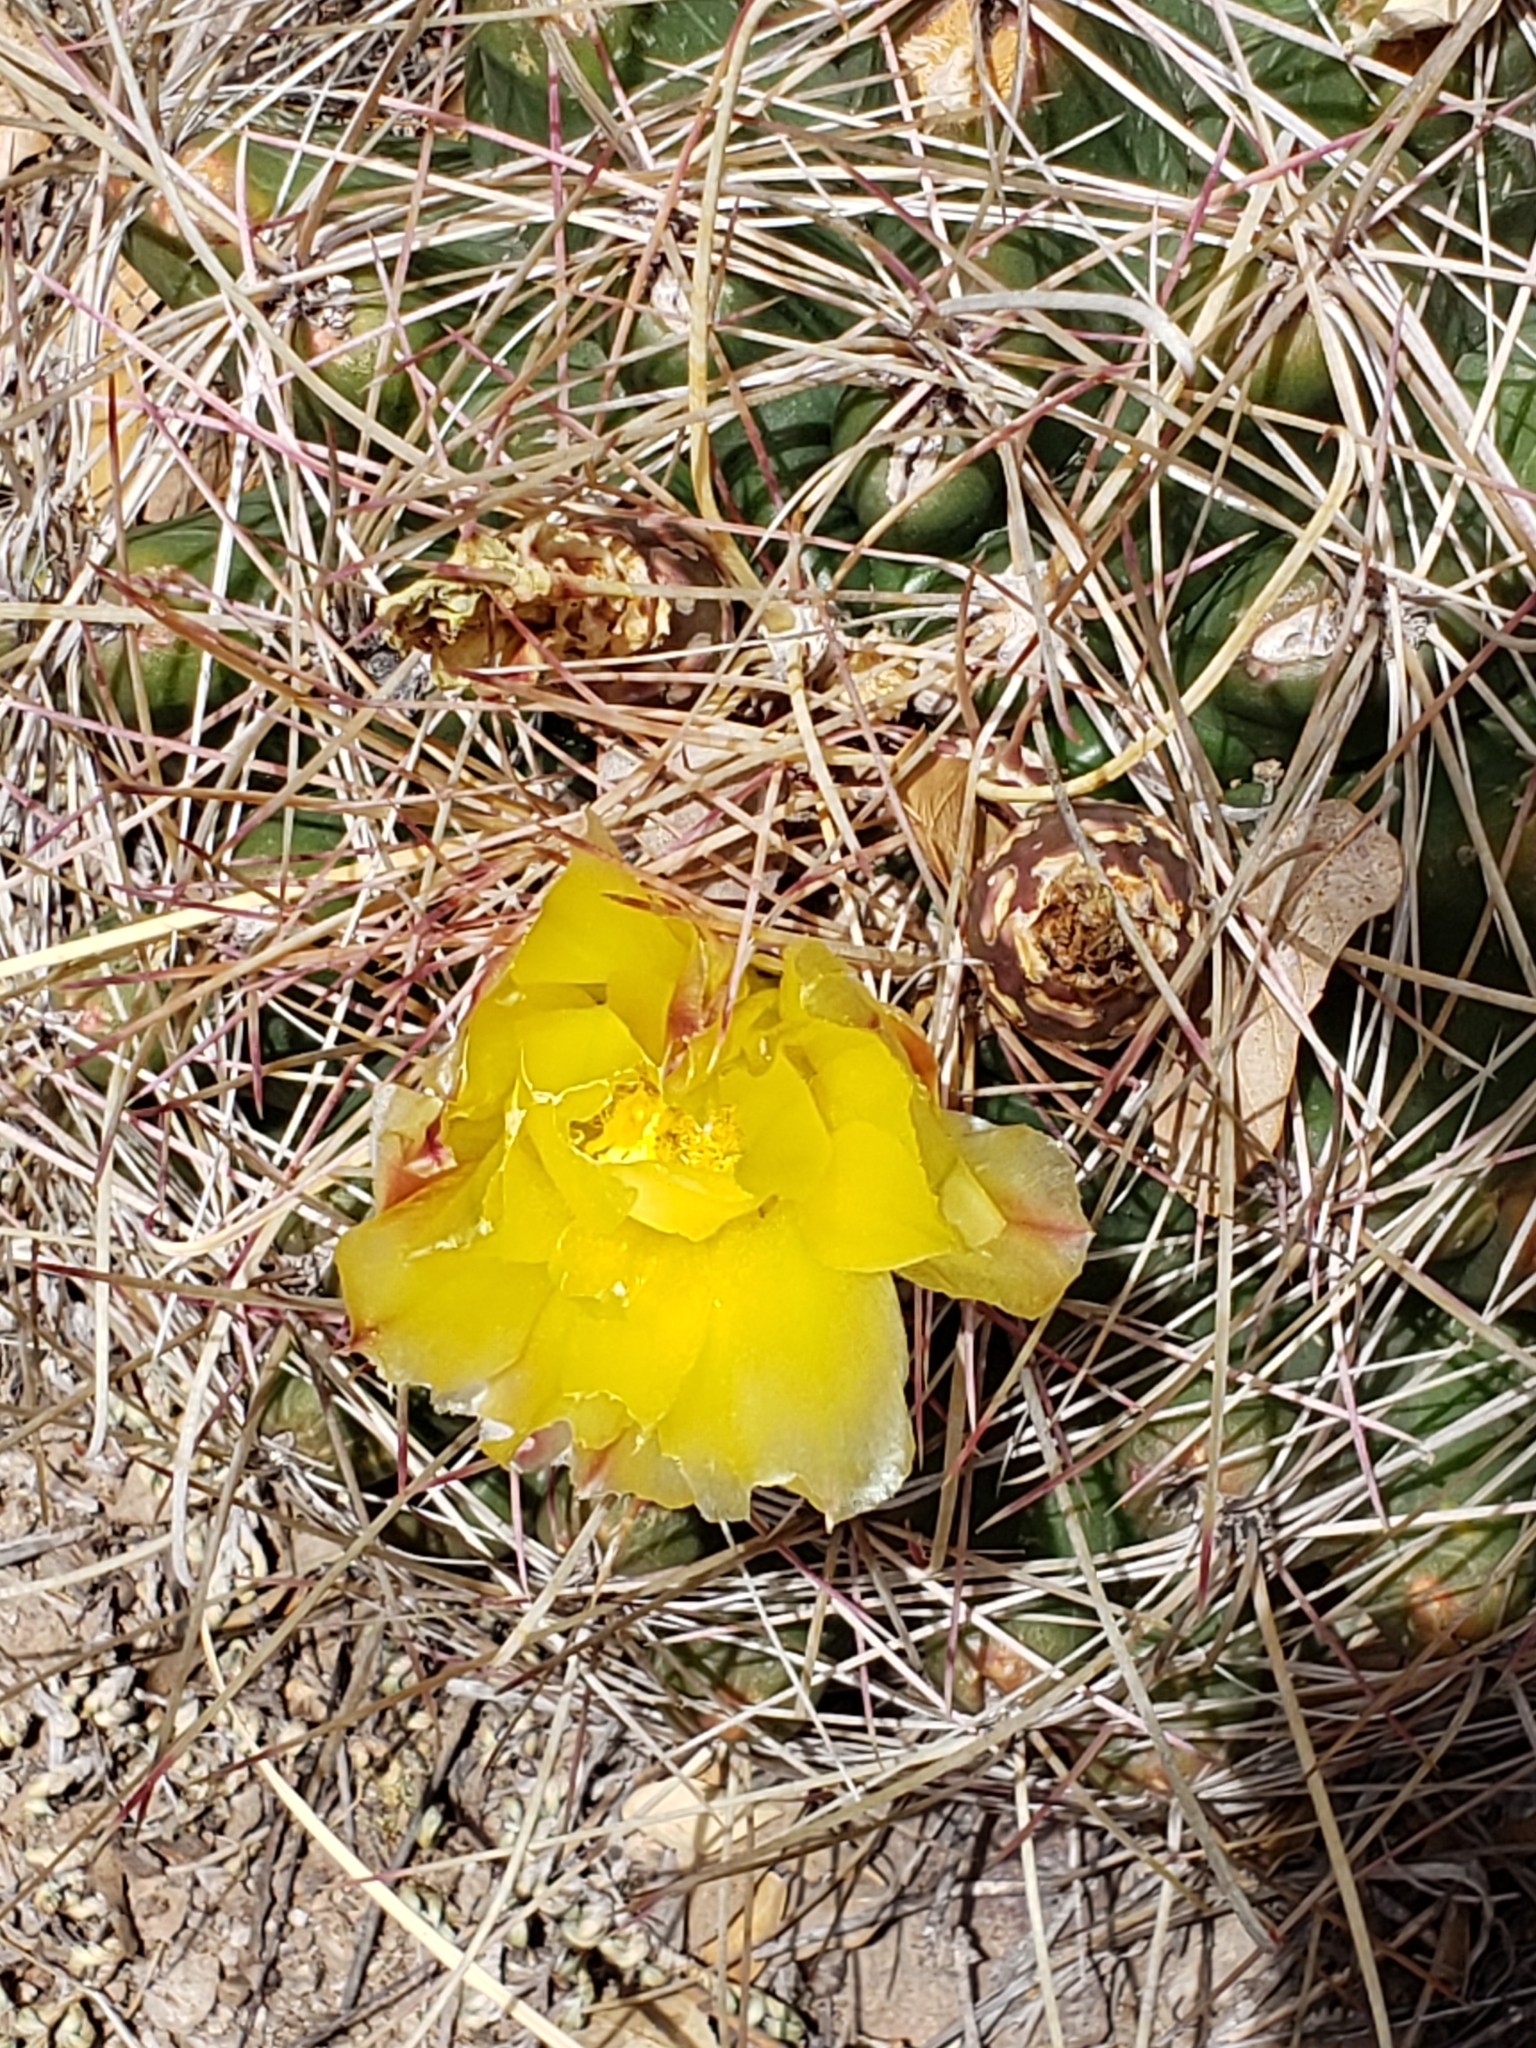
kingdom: Plantae
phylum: Tracheophyta
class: Magnoliopsida
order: Caryophyllales
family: Cactaceae
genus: Bisnaga
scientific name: Bisnaga hamatacantha
